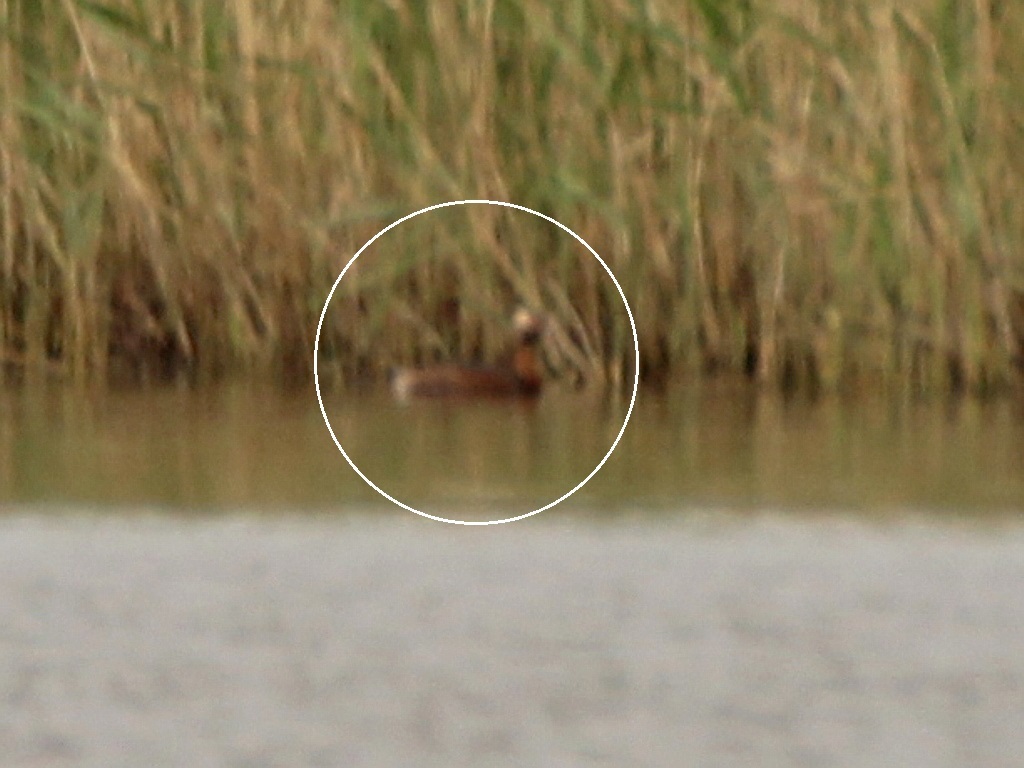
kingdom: Animalia
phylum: Chordata
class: Aves
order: Podicipediformes
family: Podicipedidae
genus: Podiceps
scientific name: Podiceps auritus
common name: Horned grebe
